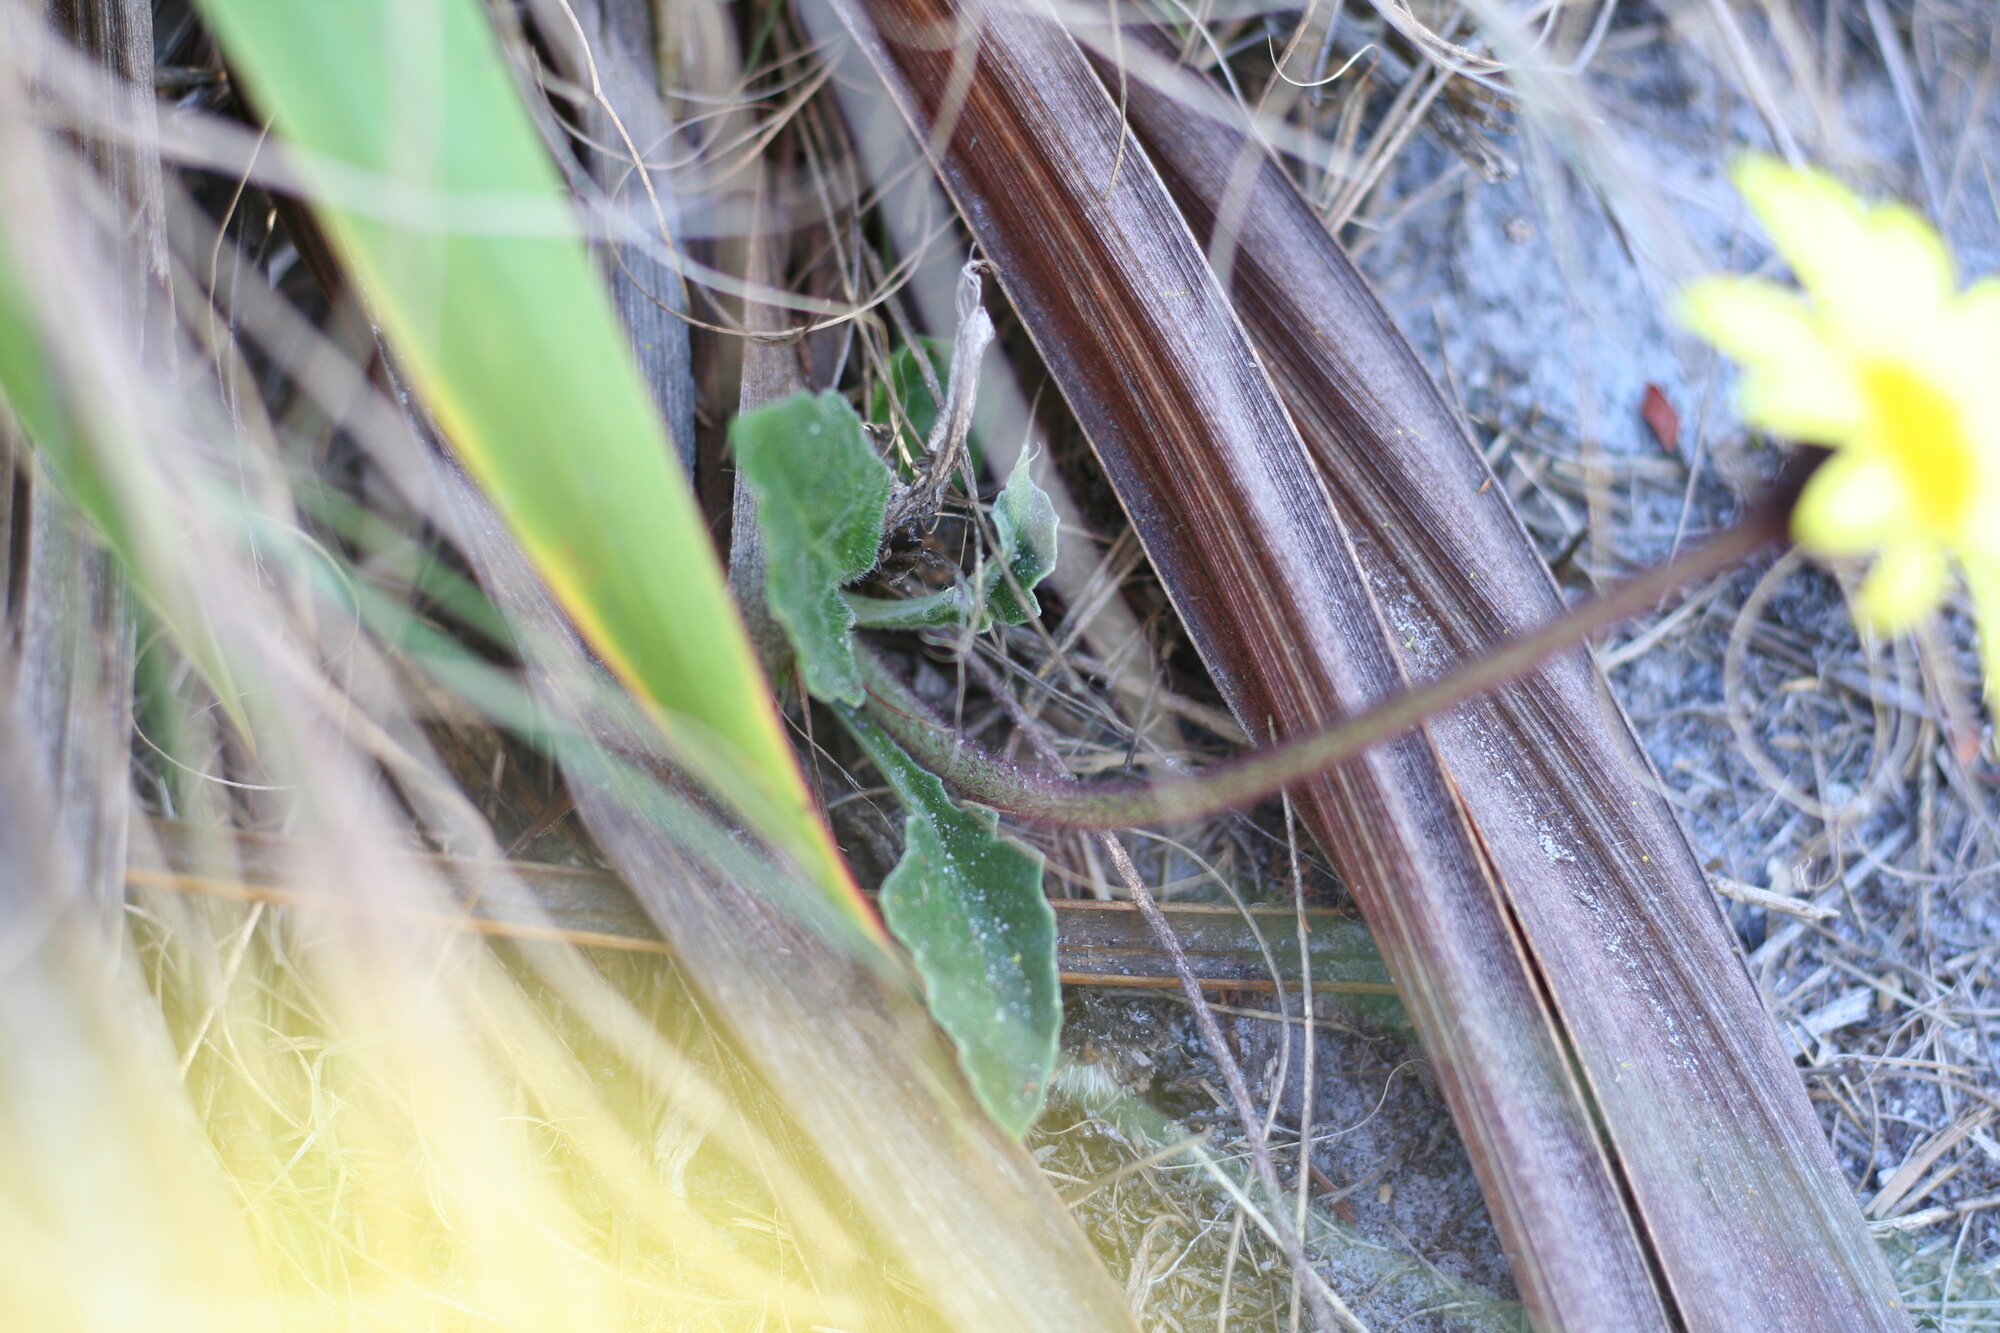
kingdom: Plantae
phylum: Tracheophyta
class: Magnoliopsida
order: Asterales
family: Asteraceae
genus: Haplocarpha
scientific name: Haplocarpha lanata
